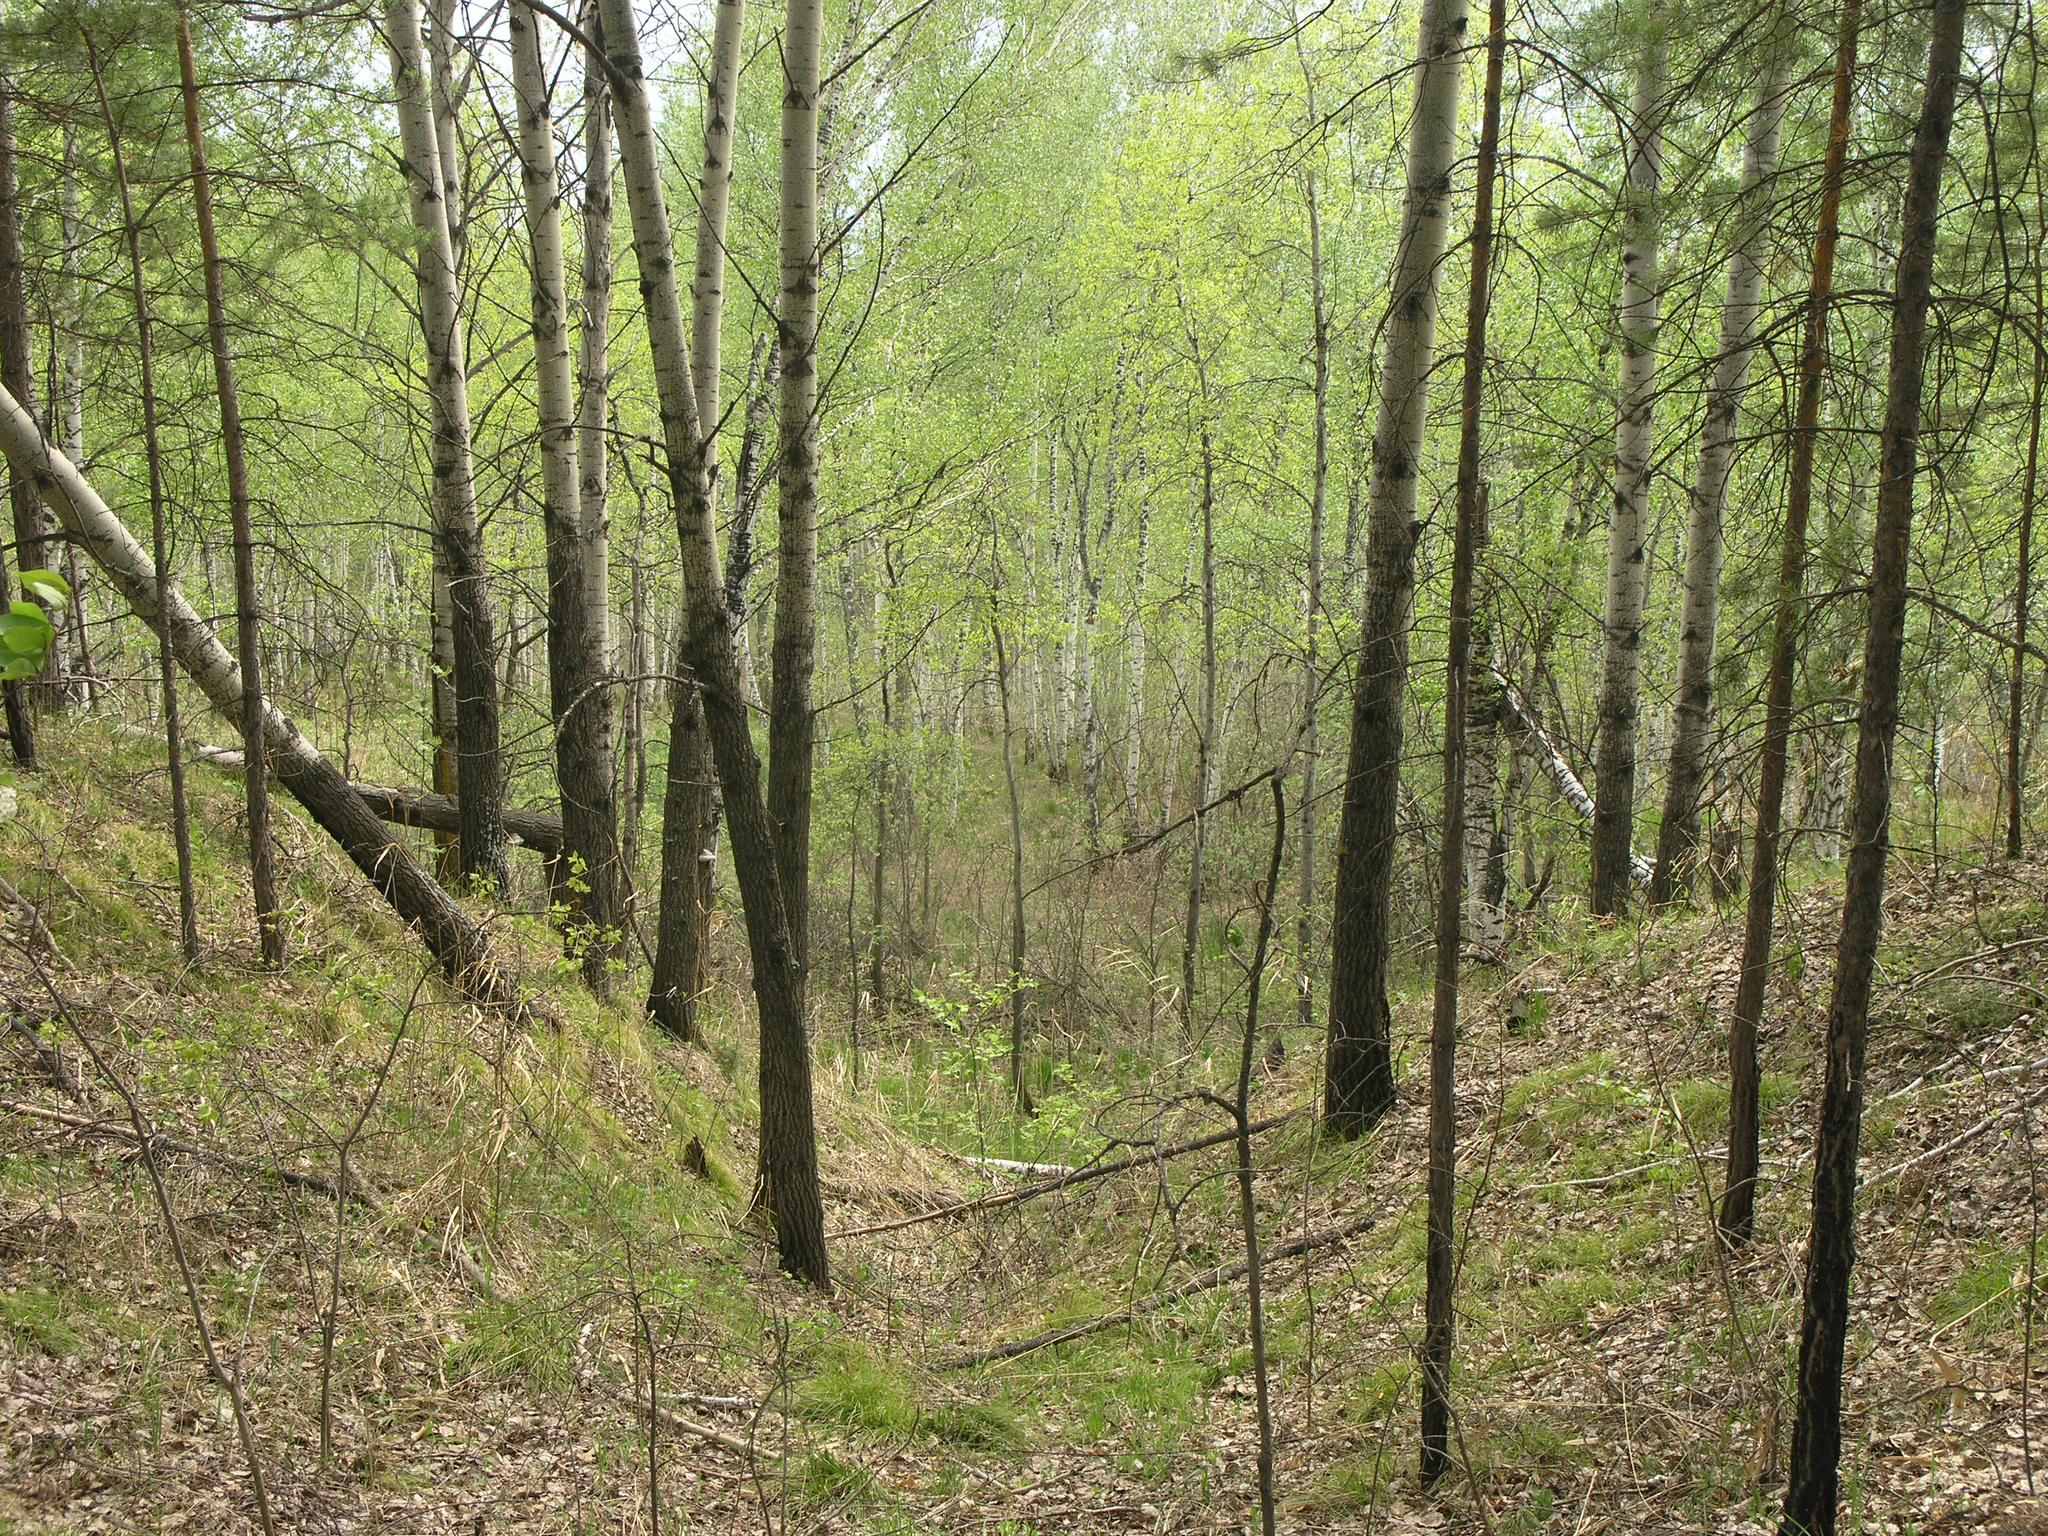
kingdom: Plantae
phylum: Tracheophyta
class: Magnoliopsida
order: Malpighiales
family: Salicaceae
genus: Populus
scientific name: Populus tremula
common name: European aspen
